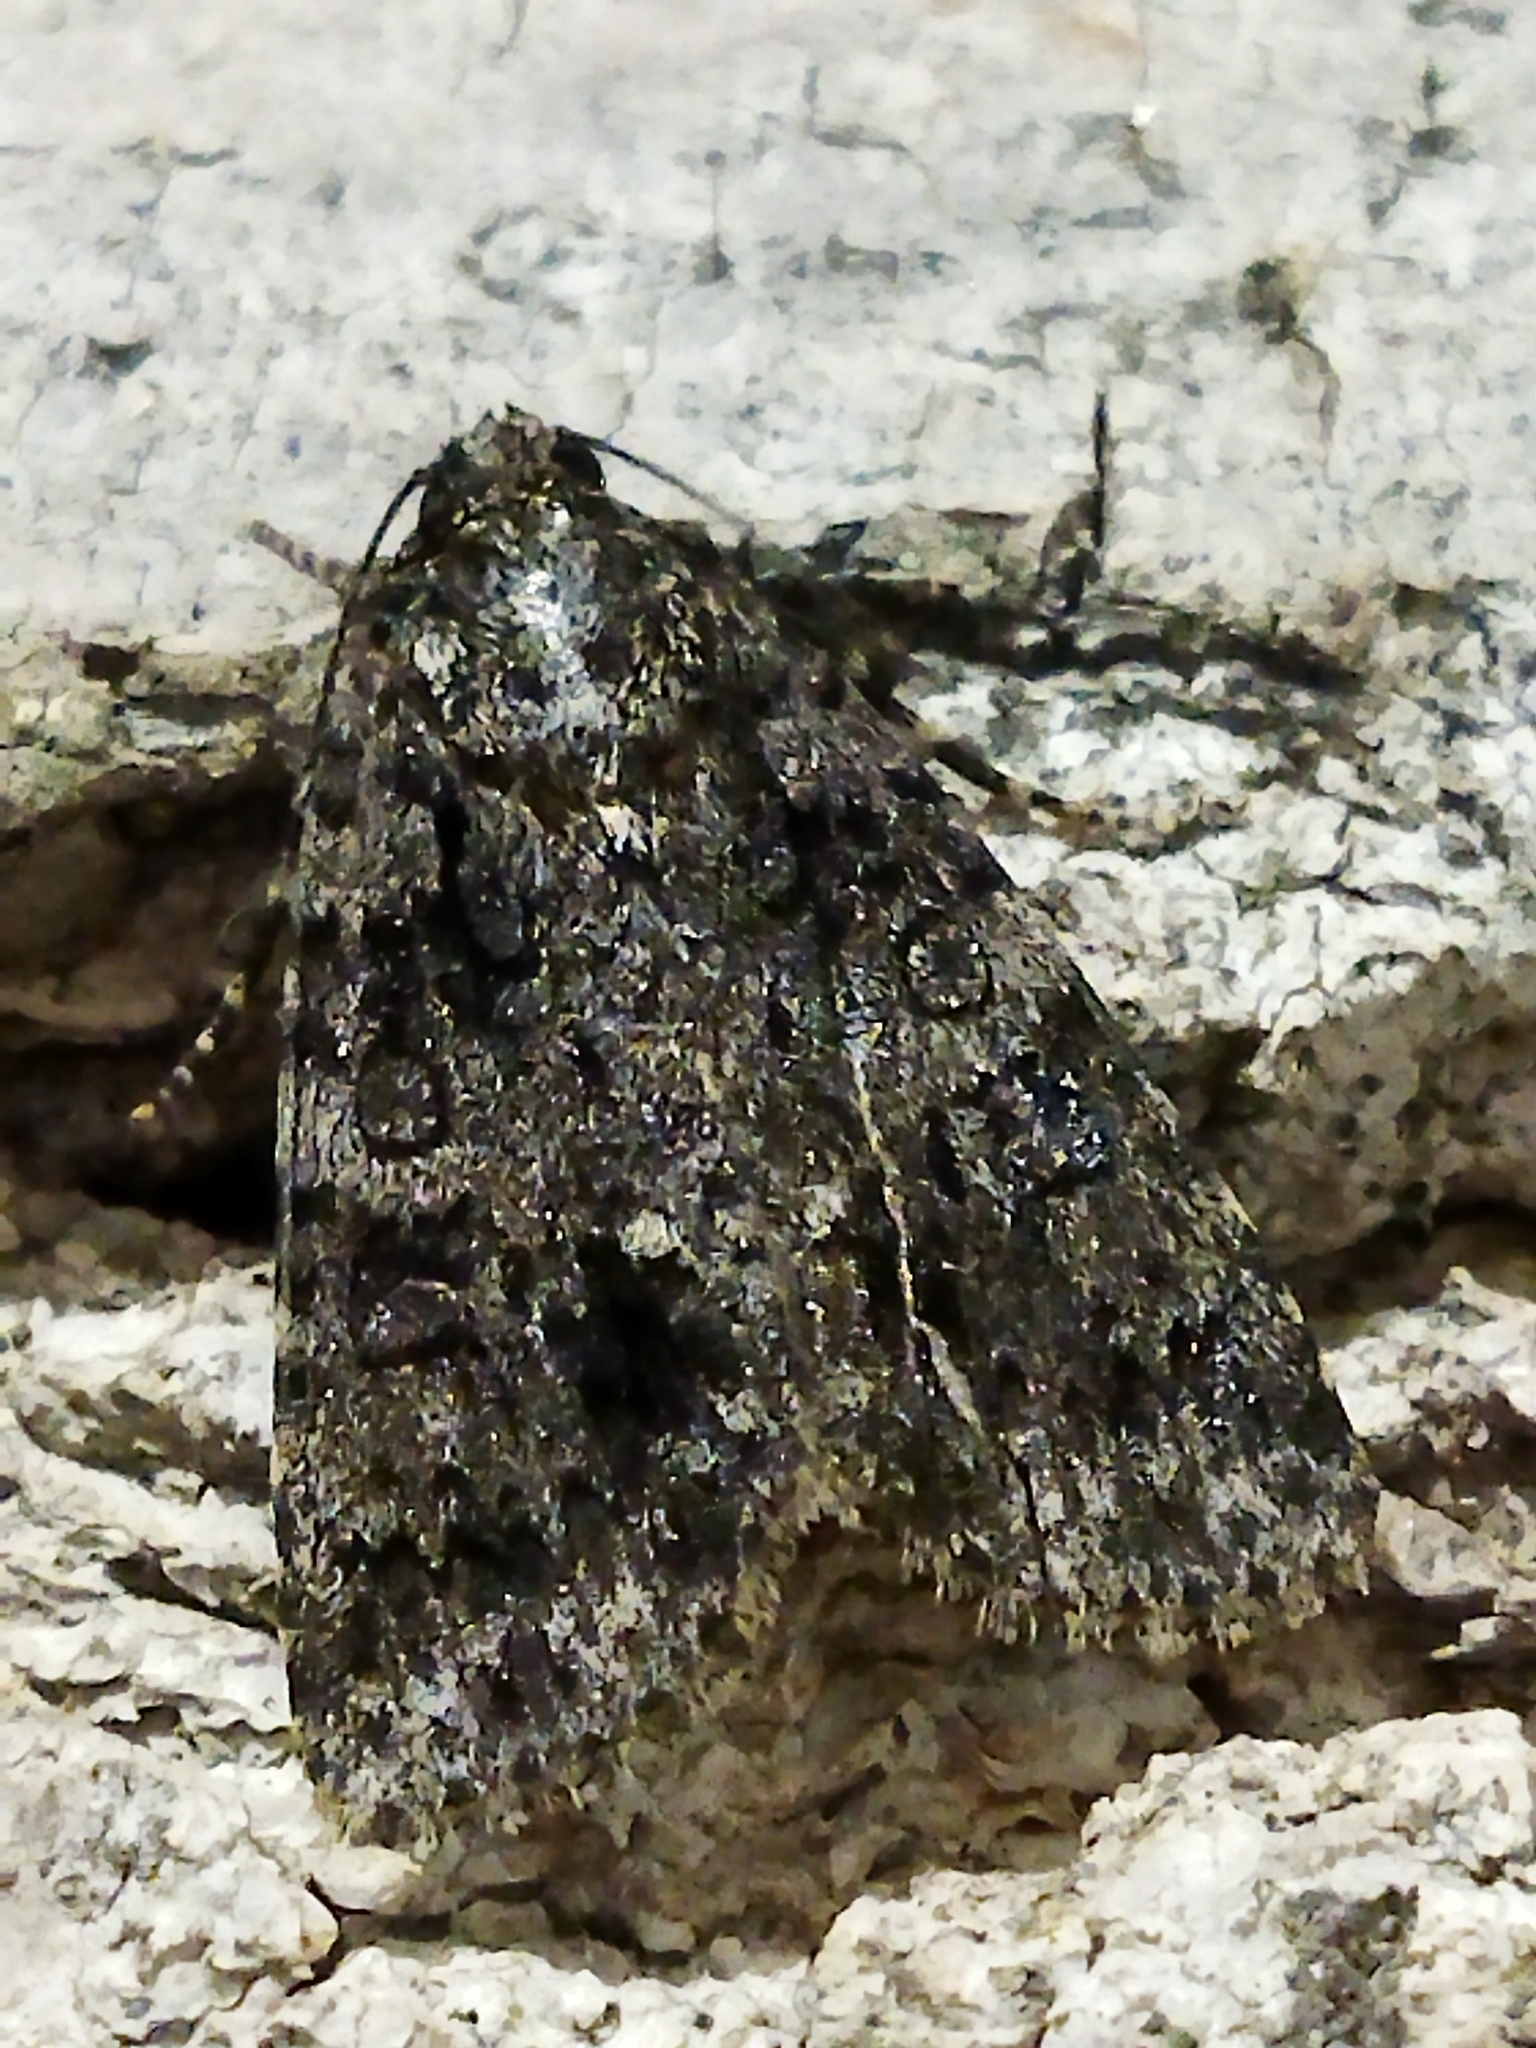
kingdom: Animalia
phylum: Arthropoda
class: Insecta
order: Lepidoptera
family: Noctuidae
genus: Acronicta
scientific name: Acronicta rumicis
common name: Knot grass
